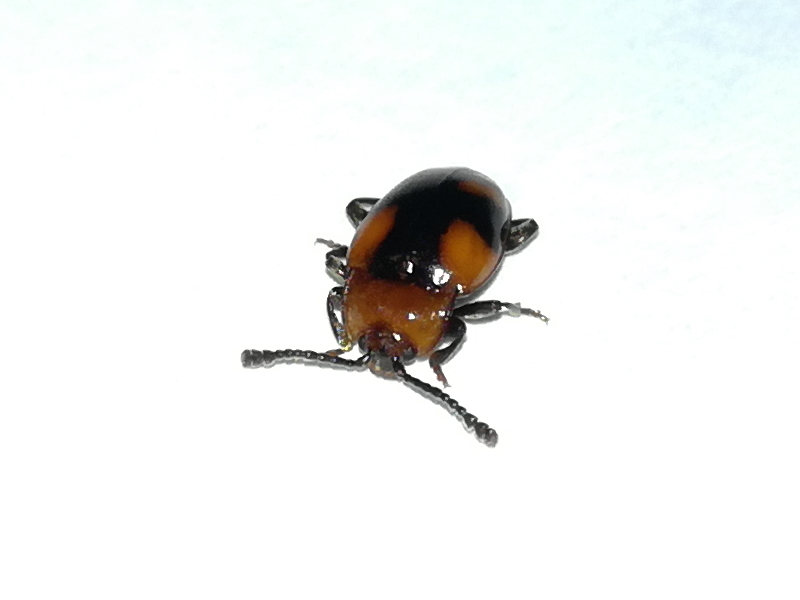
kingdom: Animalia
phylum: Arthropoda
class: Insecta
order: Coleoptera
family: Endomychidae
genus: Mycetina
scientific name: Mycetina cruciata
